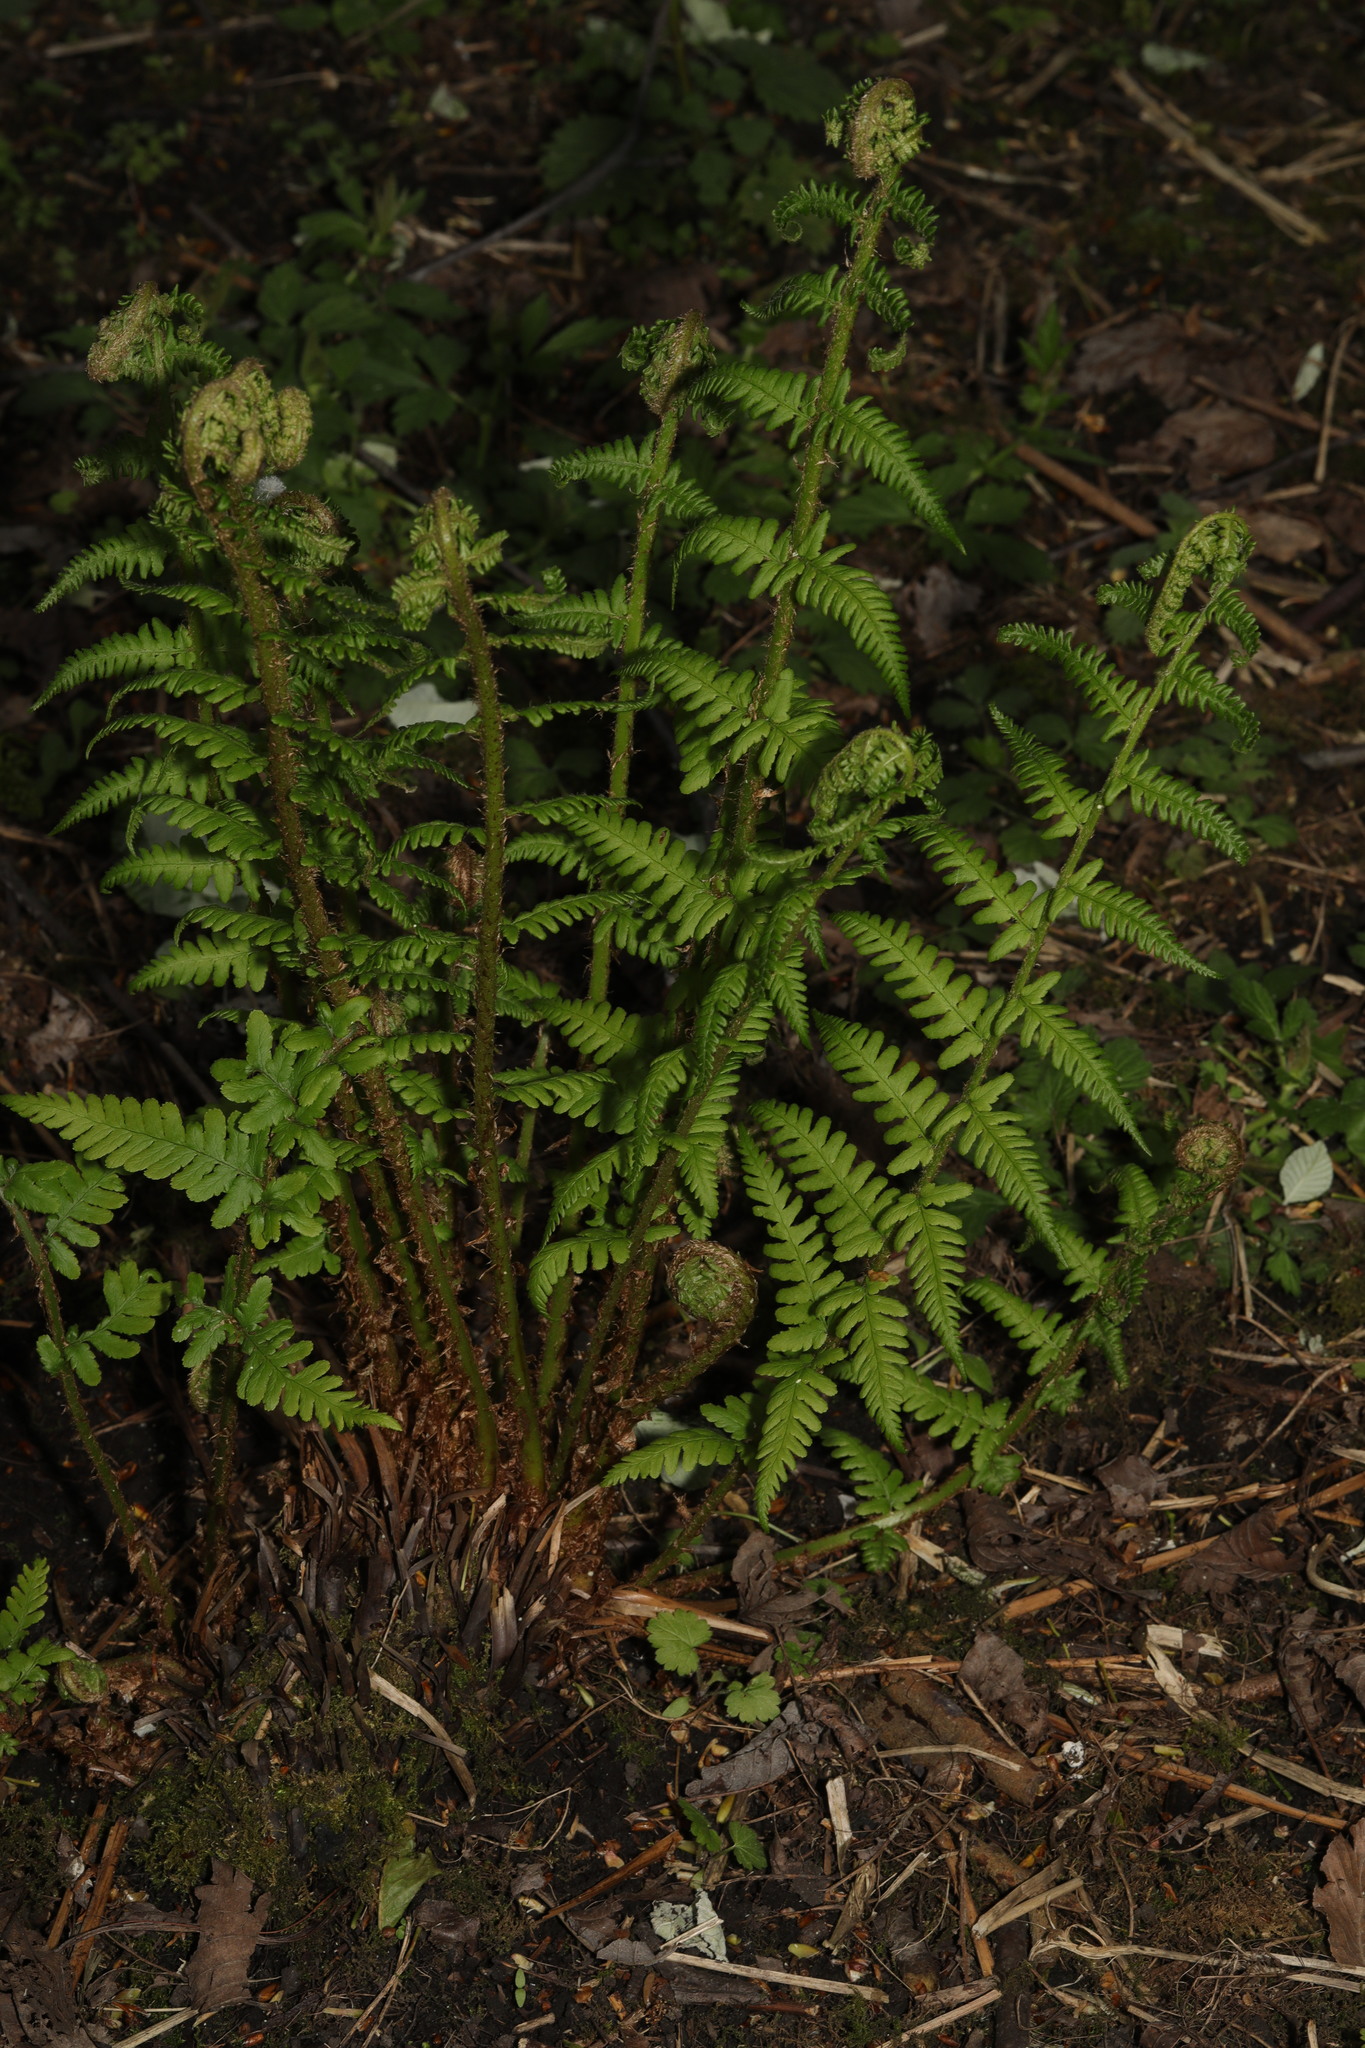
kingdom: Plantae
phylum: Tracheophyta
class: Polypodiopsida
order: Polypodiales
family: Dryopteridaceae
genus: Dryopteris
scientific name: Dryopteris filix-mas
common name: Male fern
